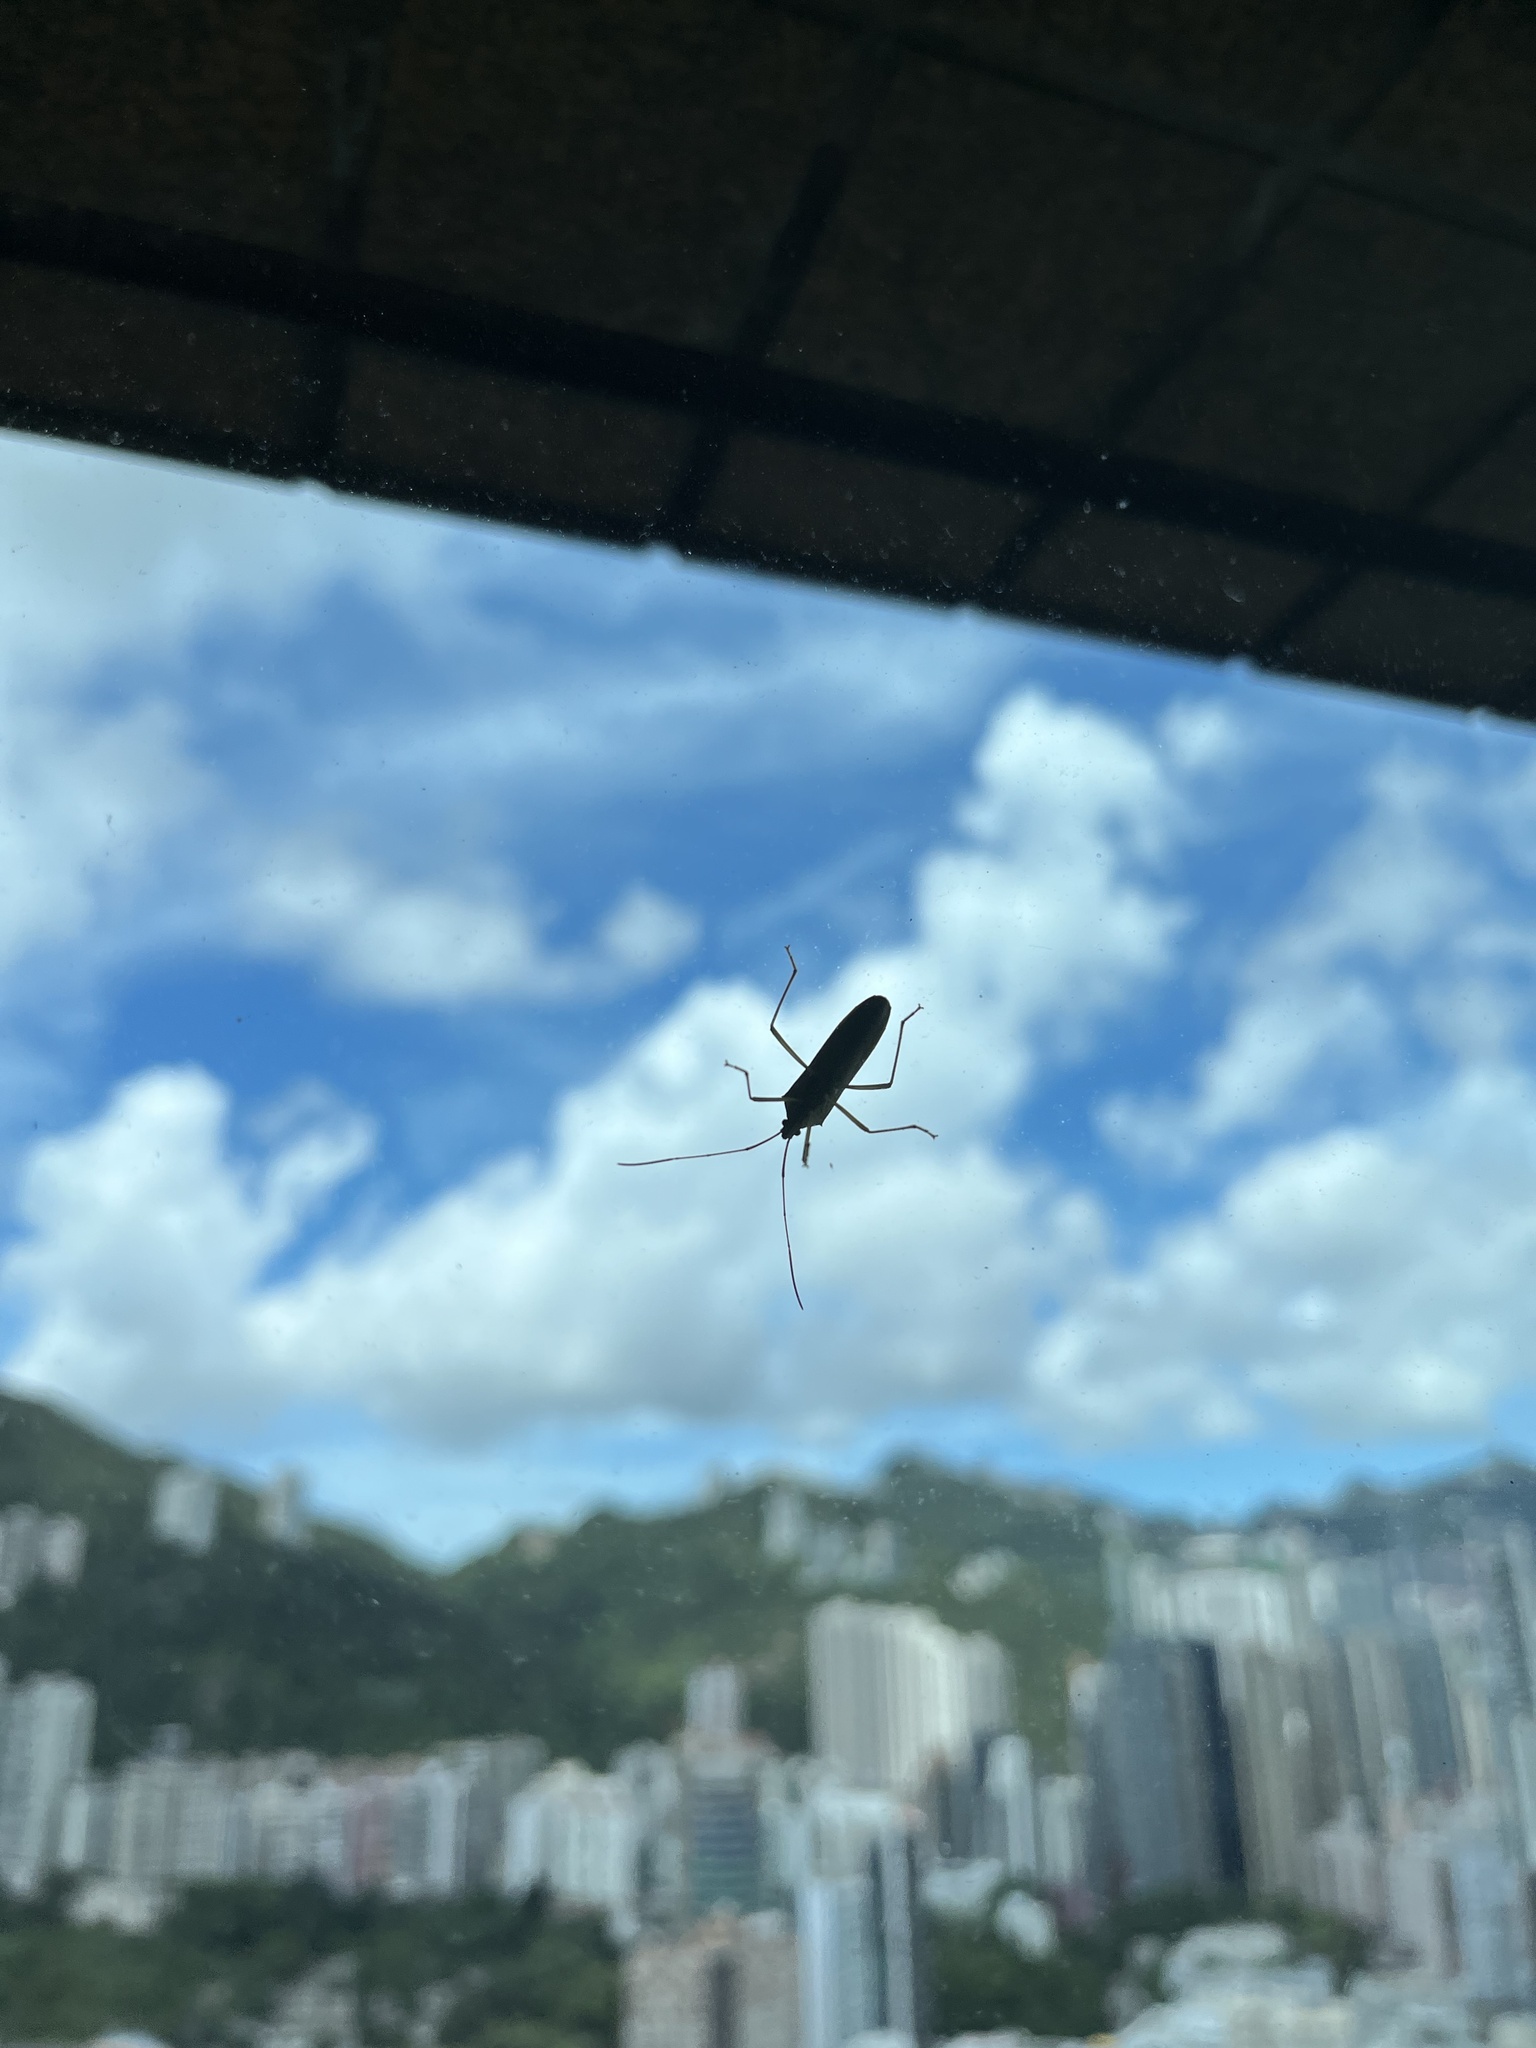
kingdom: Animalia
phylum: Arthropoda
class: Insecta
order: Hemiptera
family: Coreidae
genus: Paradasynus
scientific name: Paradasynus spinosus
